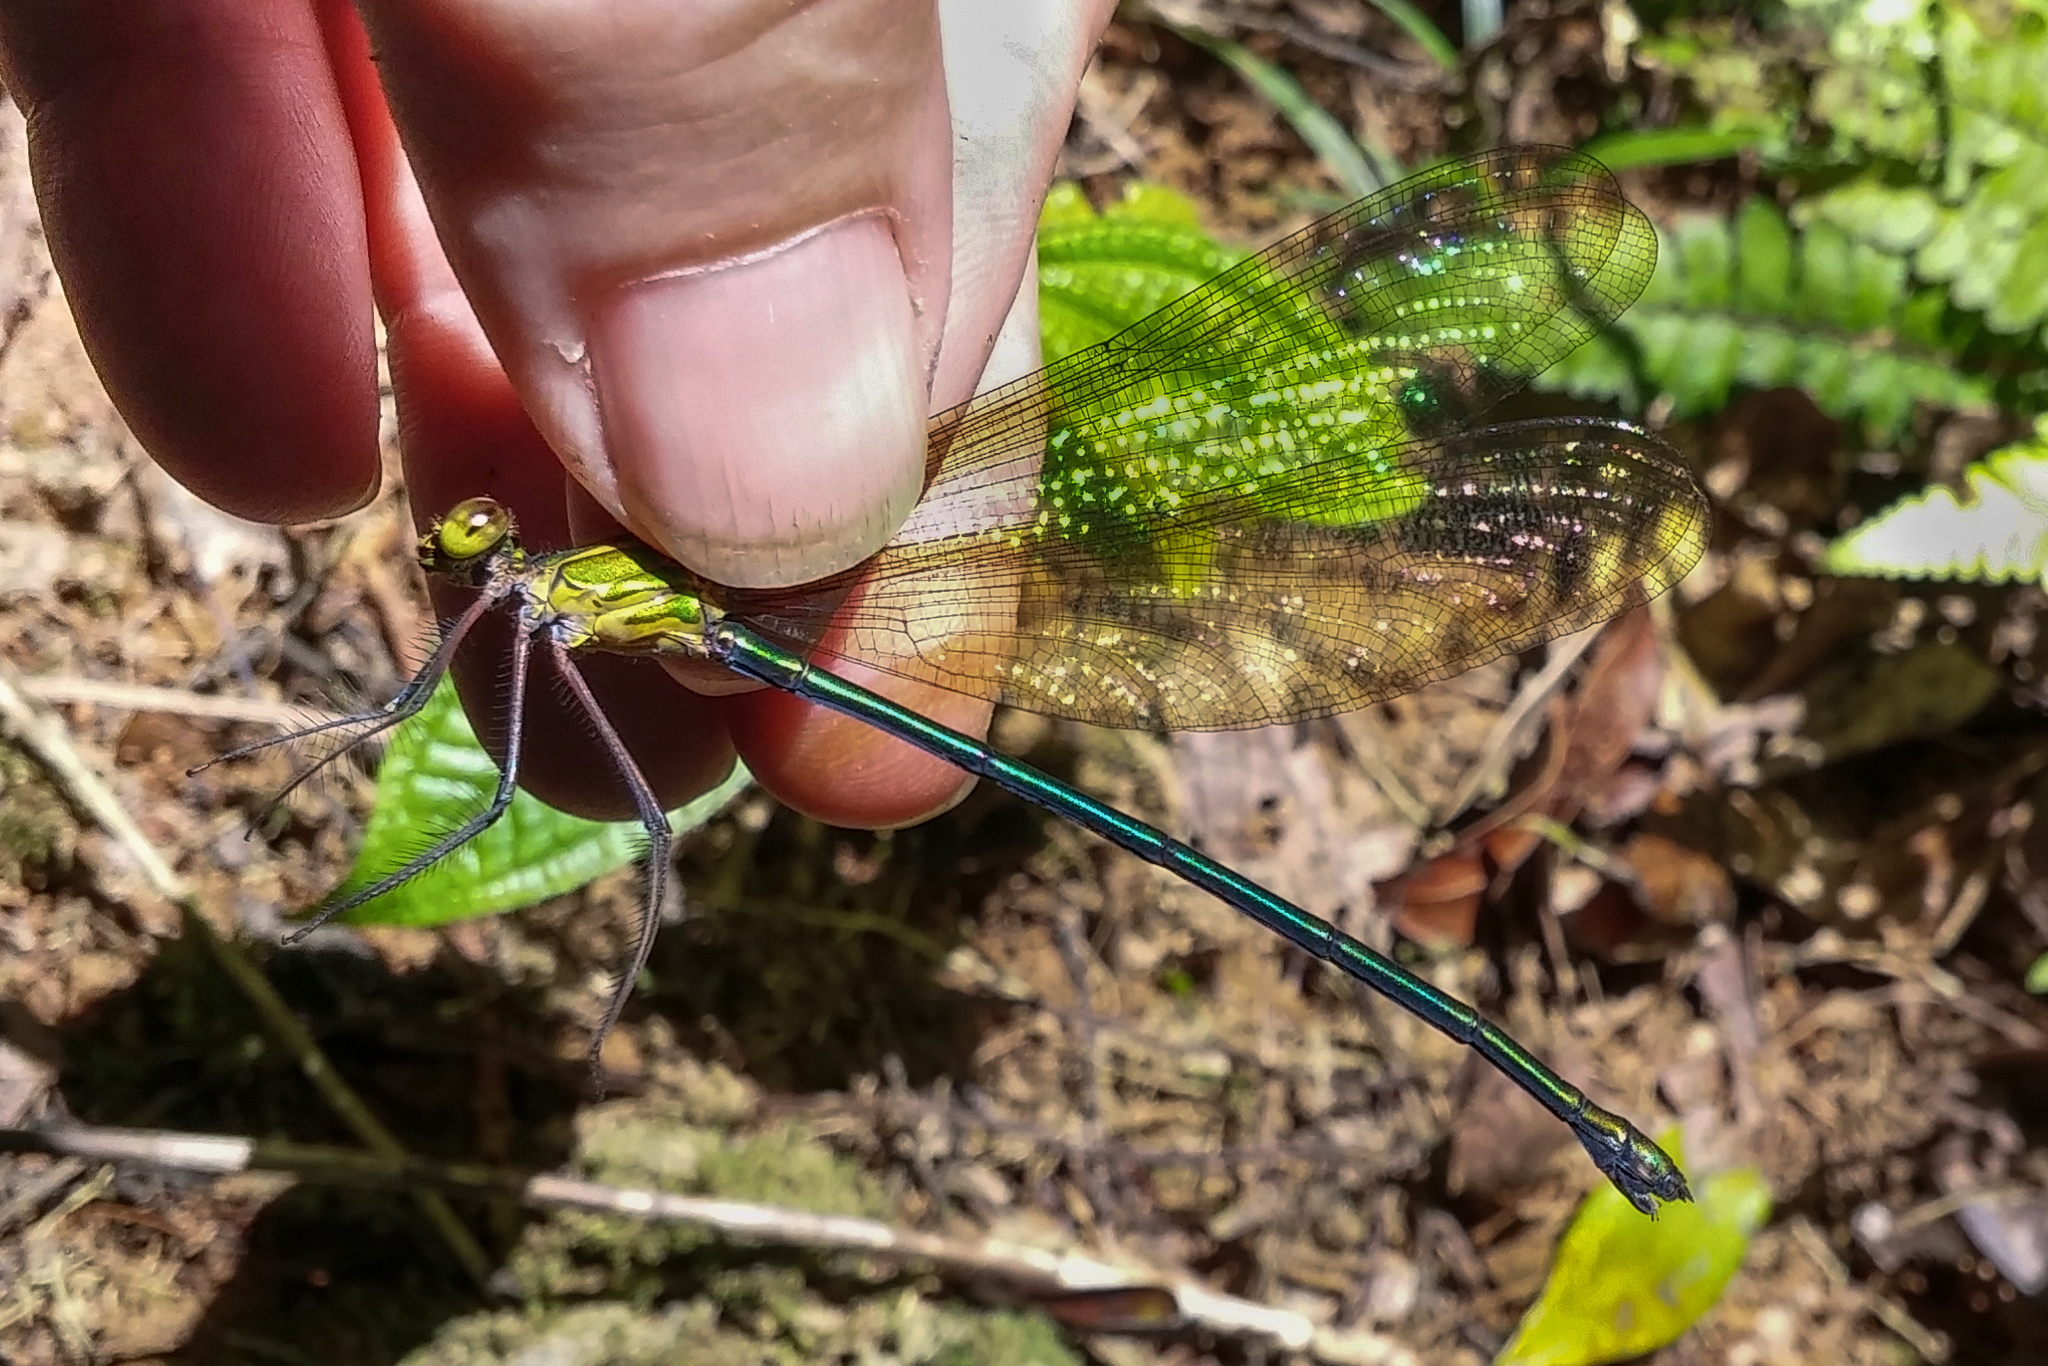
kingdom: Animalia
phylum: Arthropoda
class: Insecta
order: Odonata
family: Calopterygidae
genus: Phaon
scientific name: Phaon rasoherinae
